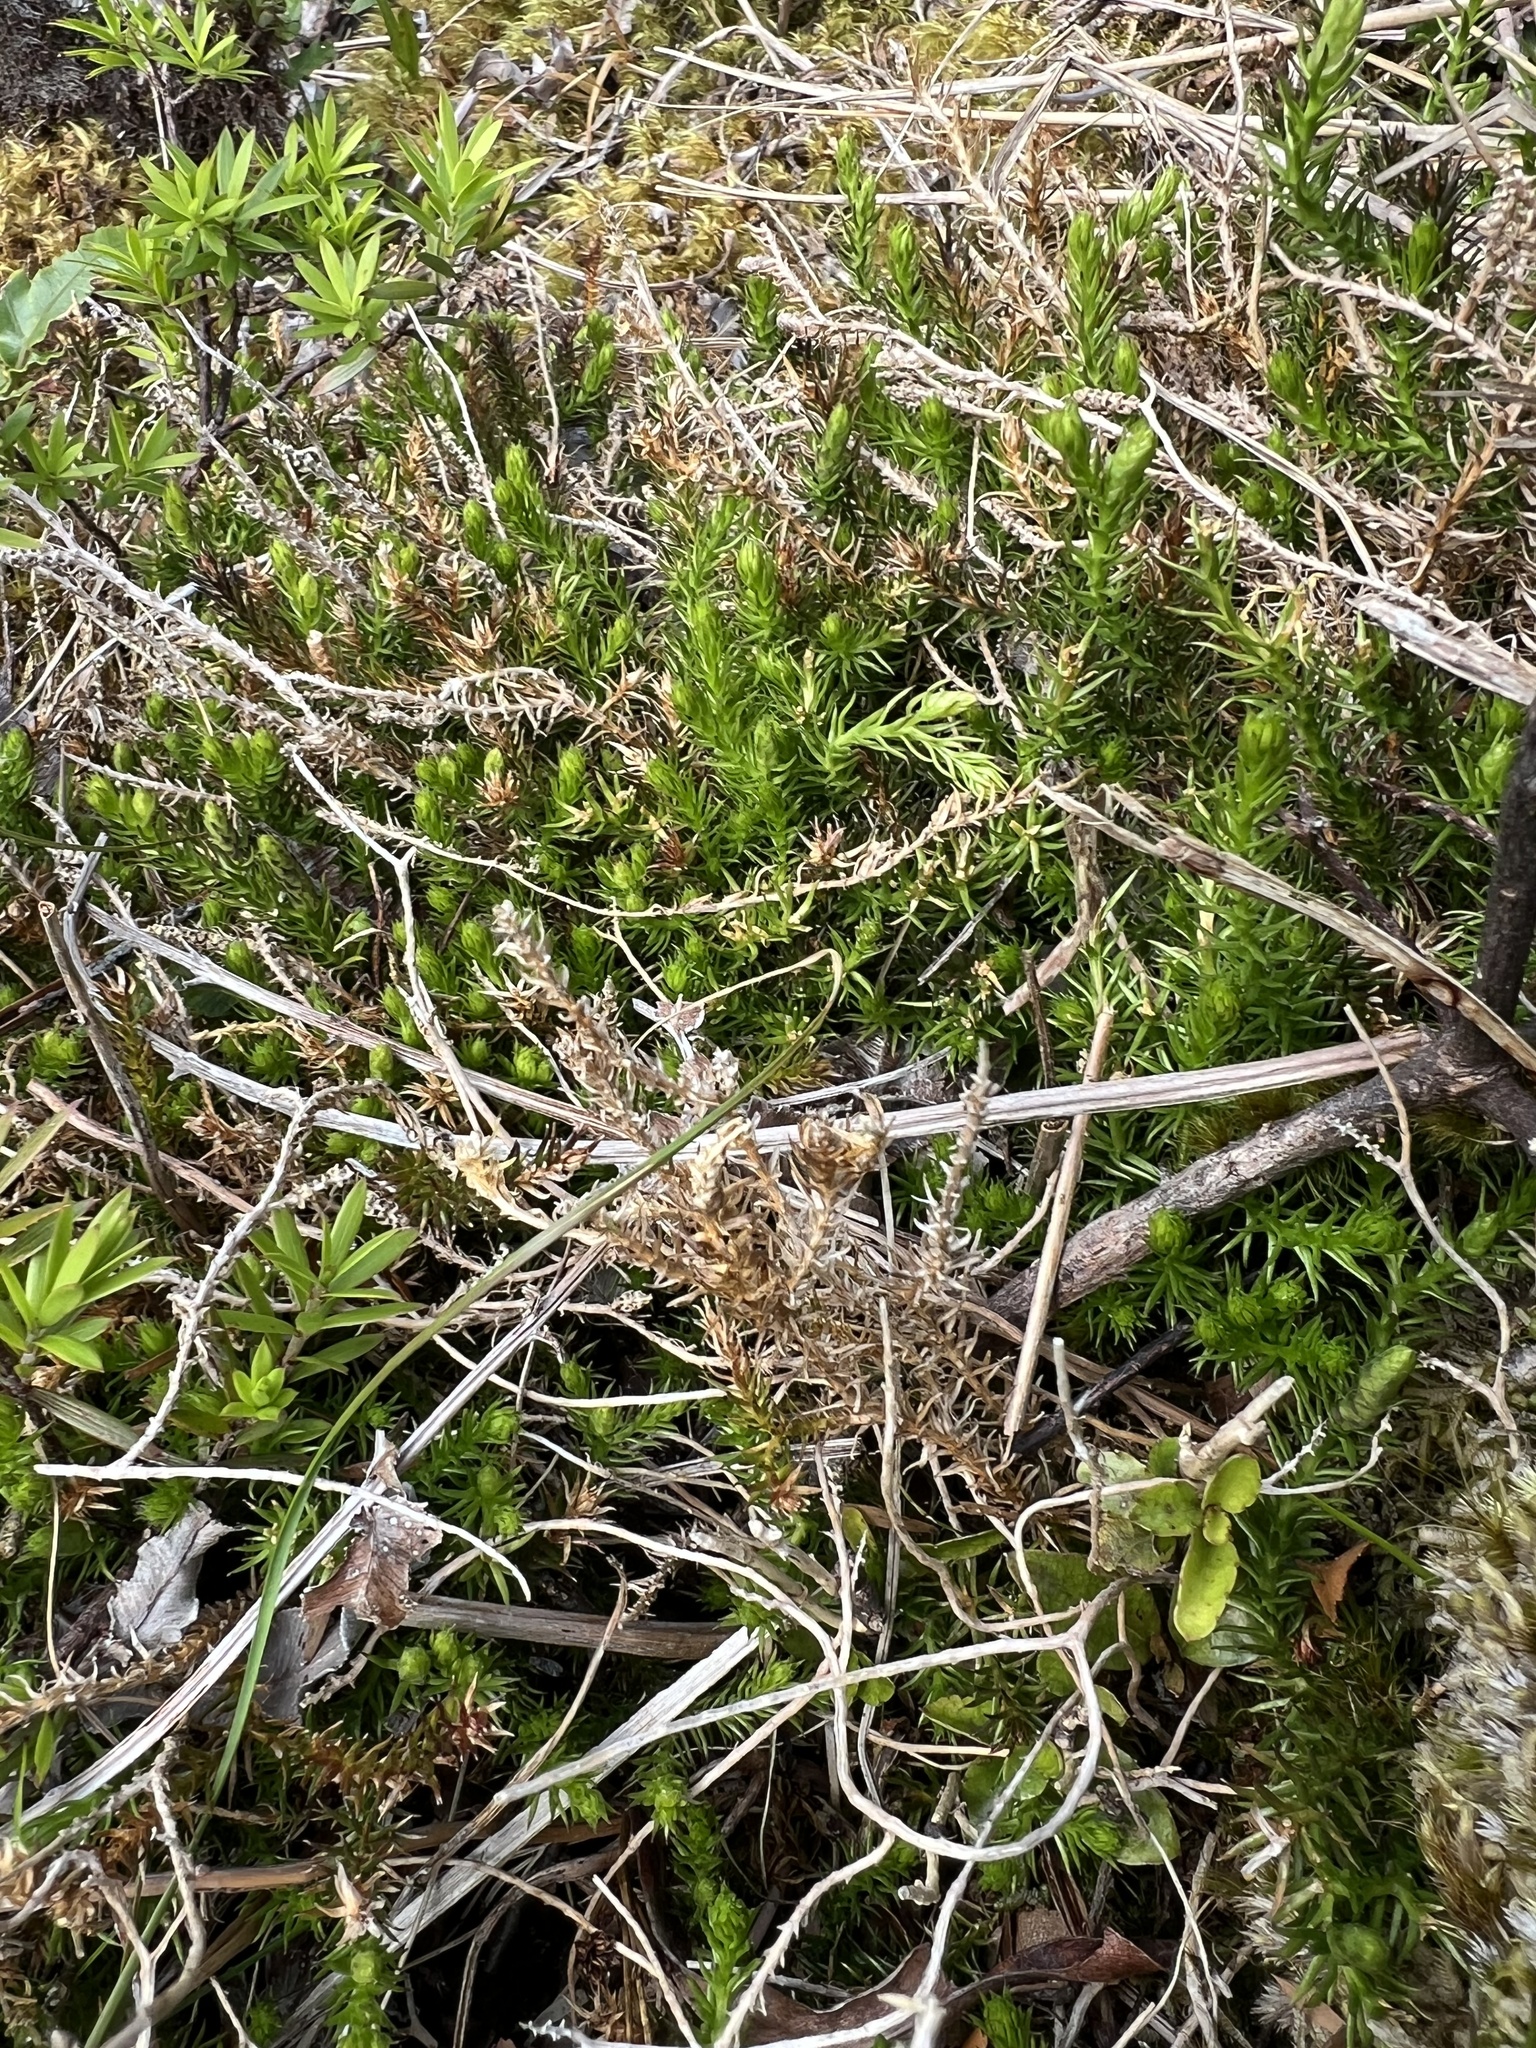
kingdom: Plantae
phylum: Tracheophyta
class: Lycopodiopsida
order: Lycopodiales
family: Lycopodiaceae
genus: Lateristachys
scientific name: Lateristachys lateralis
